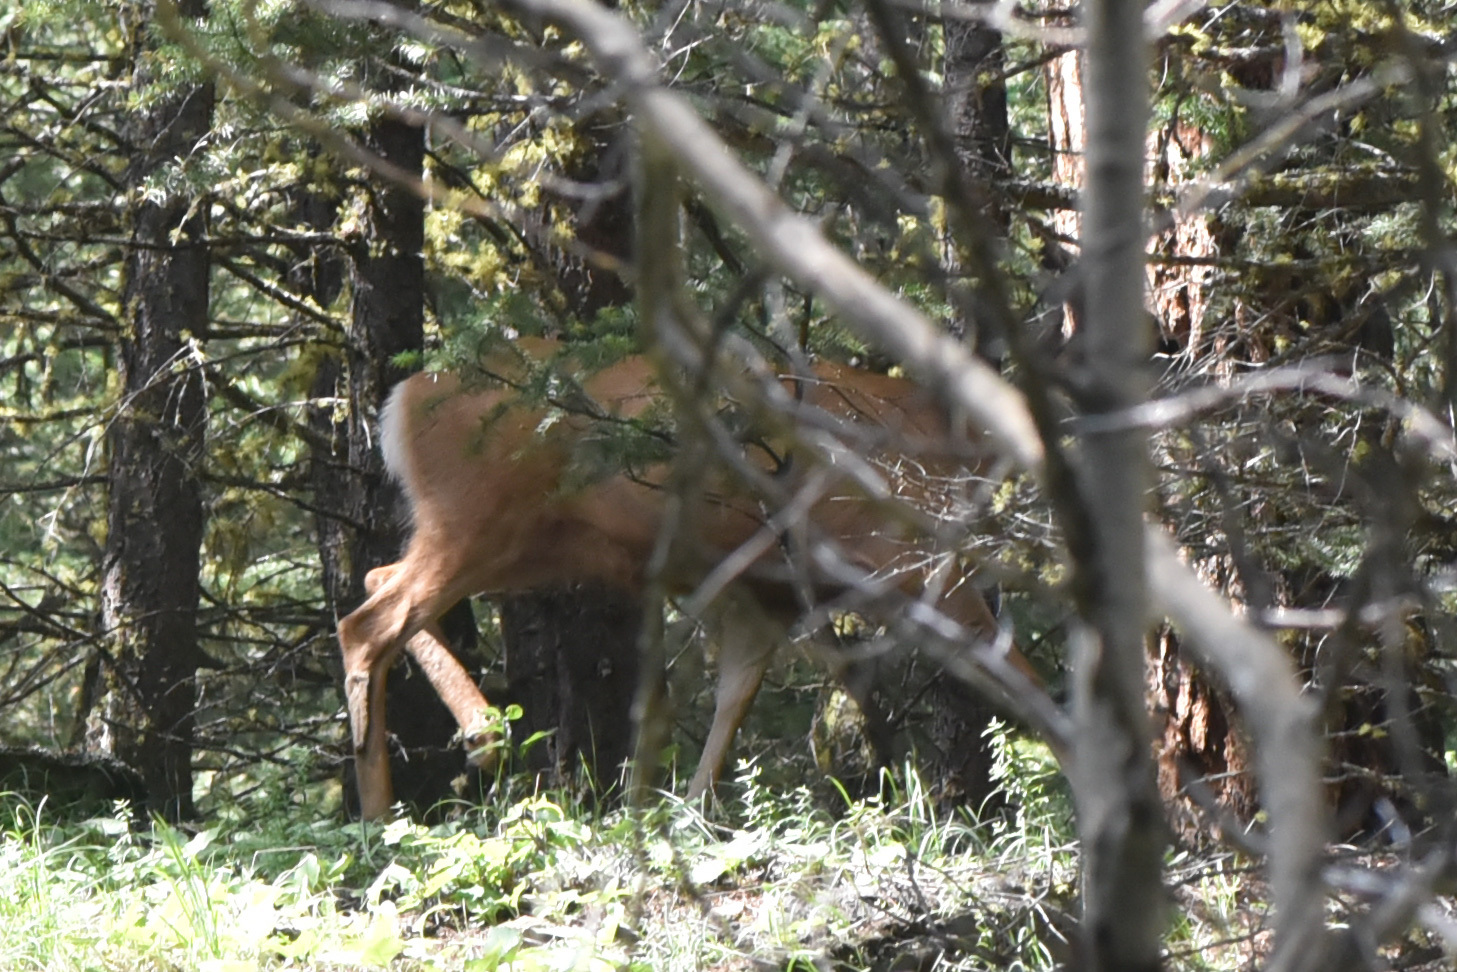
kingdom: Animalia
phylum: Chordata
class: Mammalia
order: Artiodactyla
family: Cervidae
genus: Odocoileus
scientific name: Odocoileus hemionus
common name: Mule deer
